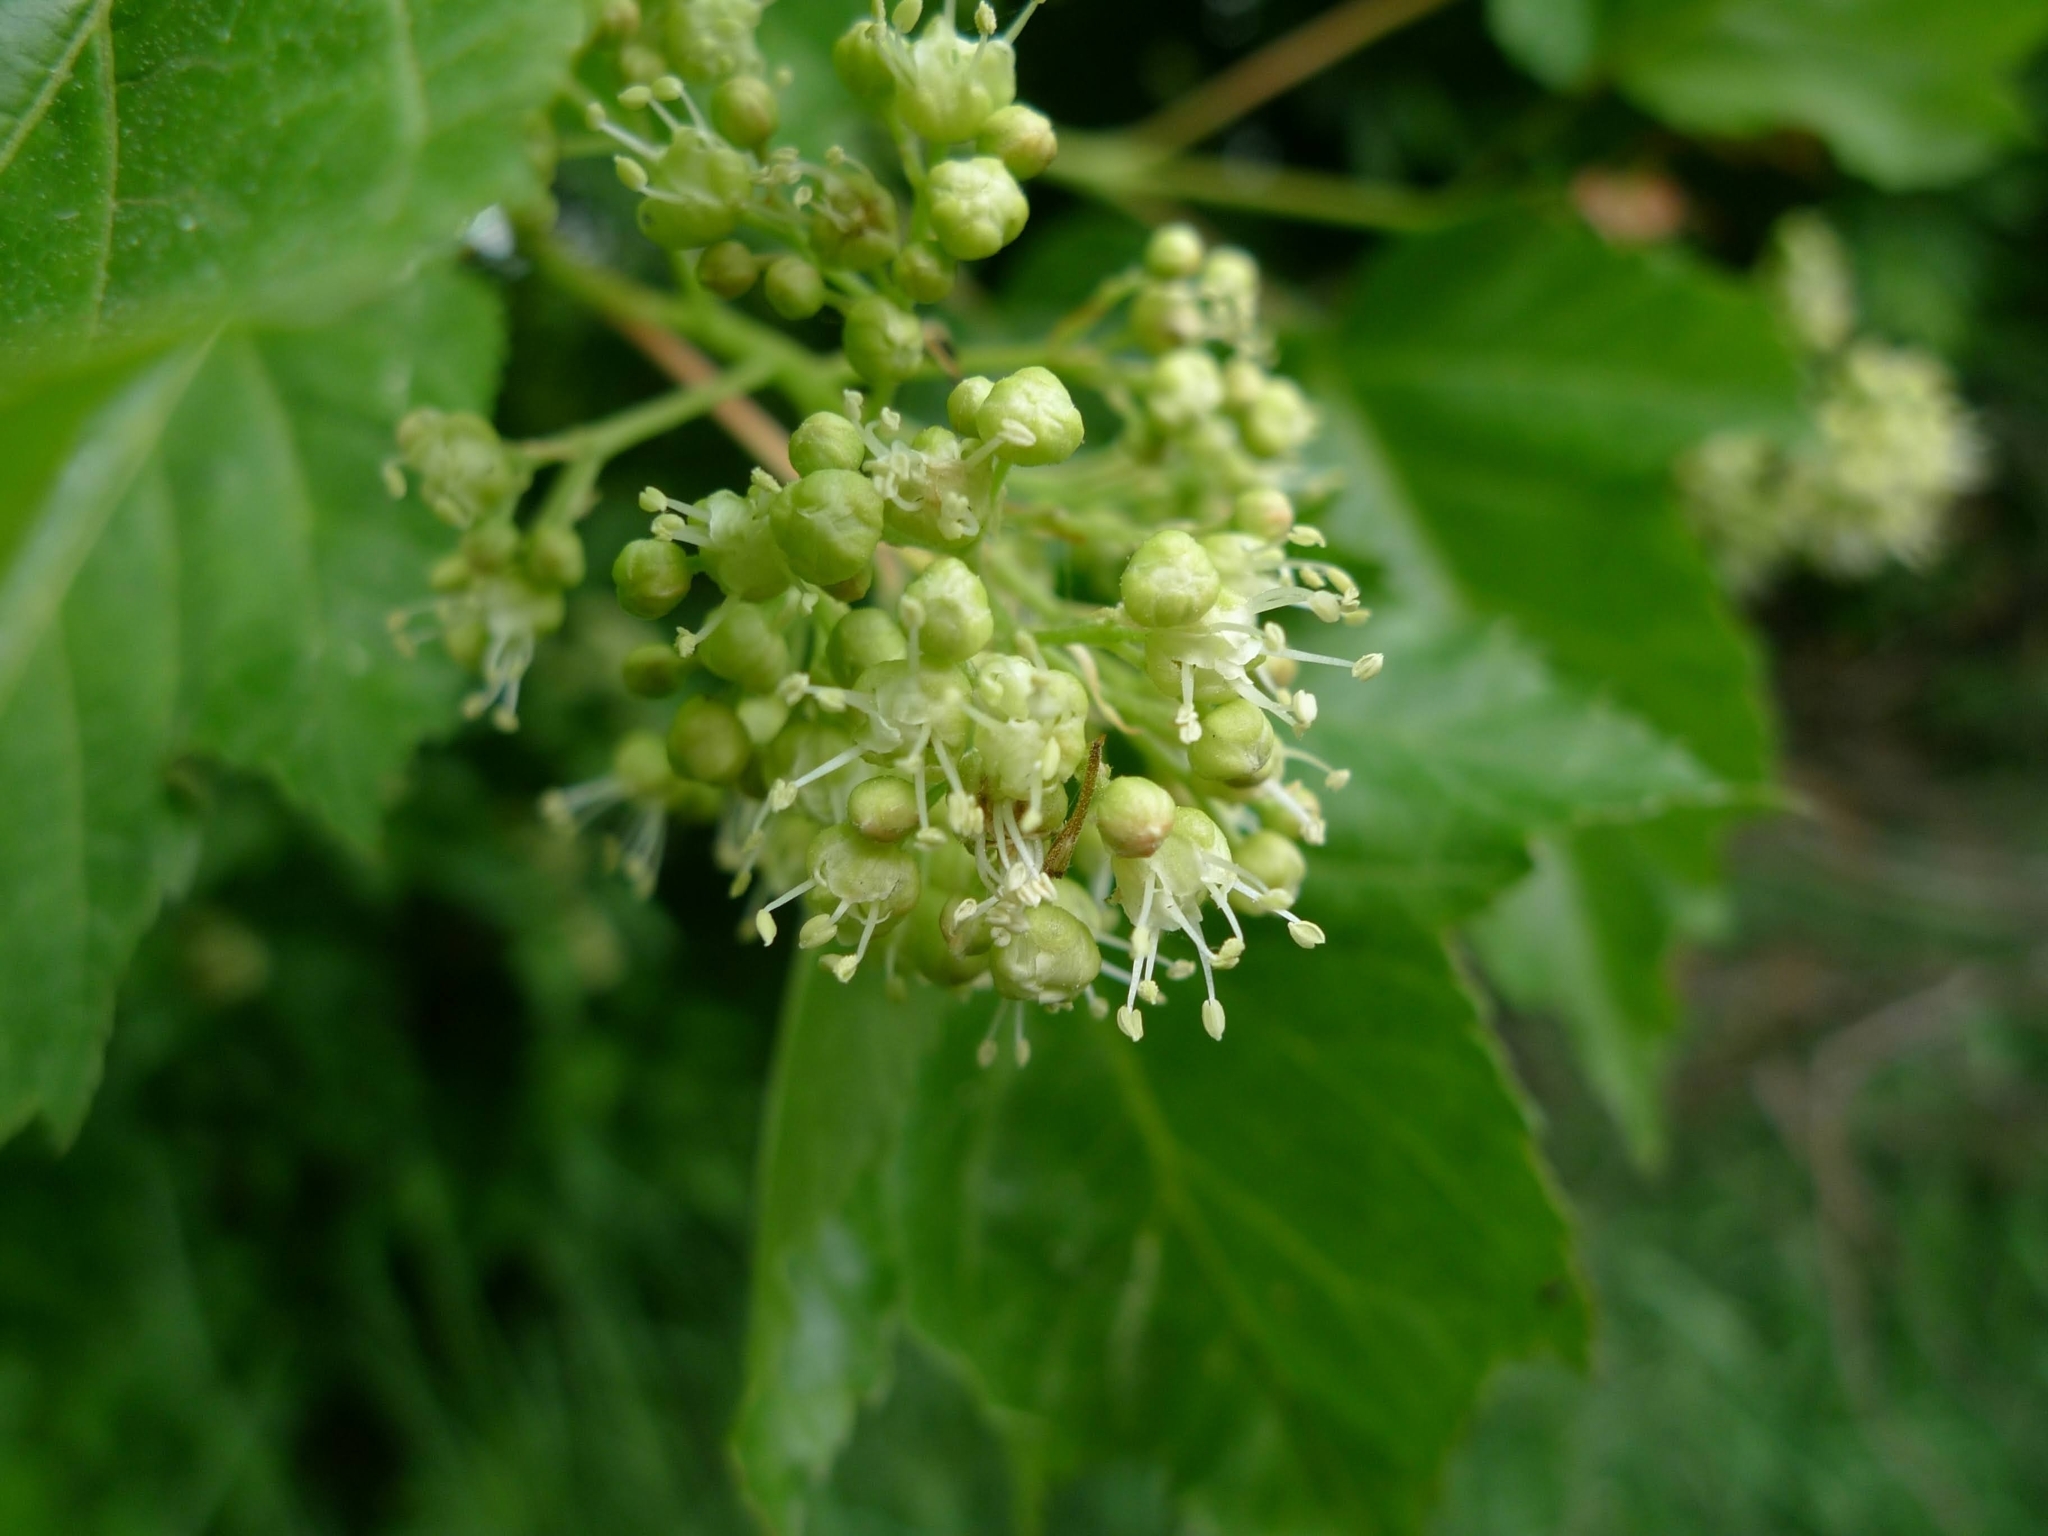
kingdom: Plantae
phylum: Tracheophyta
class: Magnoliopsida
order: Sapindales
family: Sapindaceae
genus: Acer
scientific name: Acer tataricum
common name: Tartar maple
